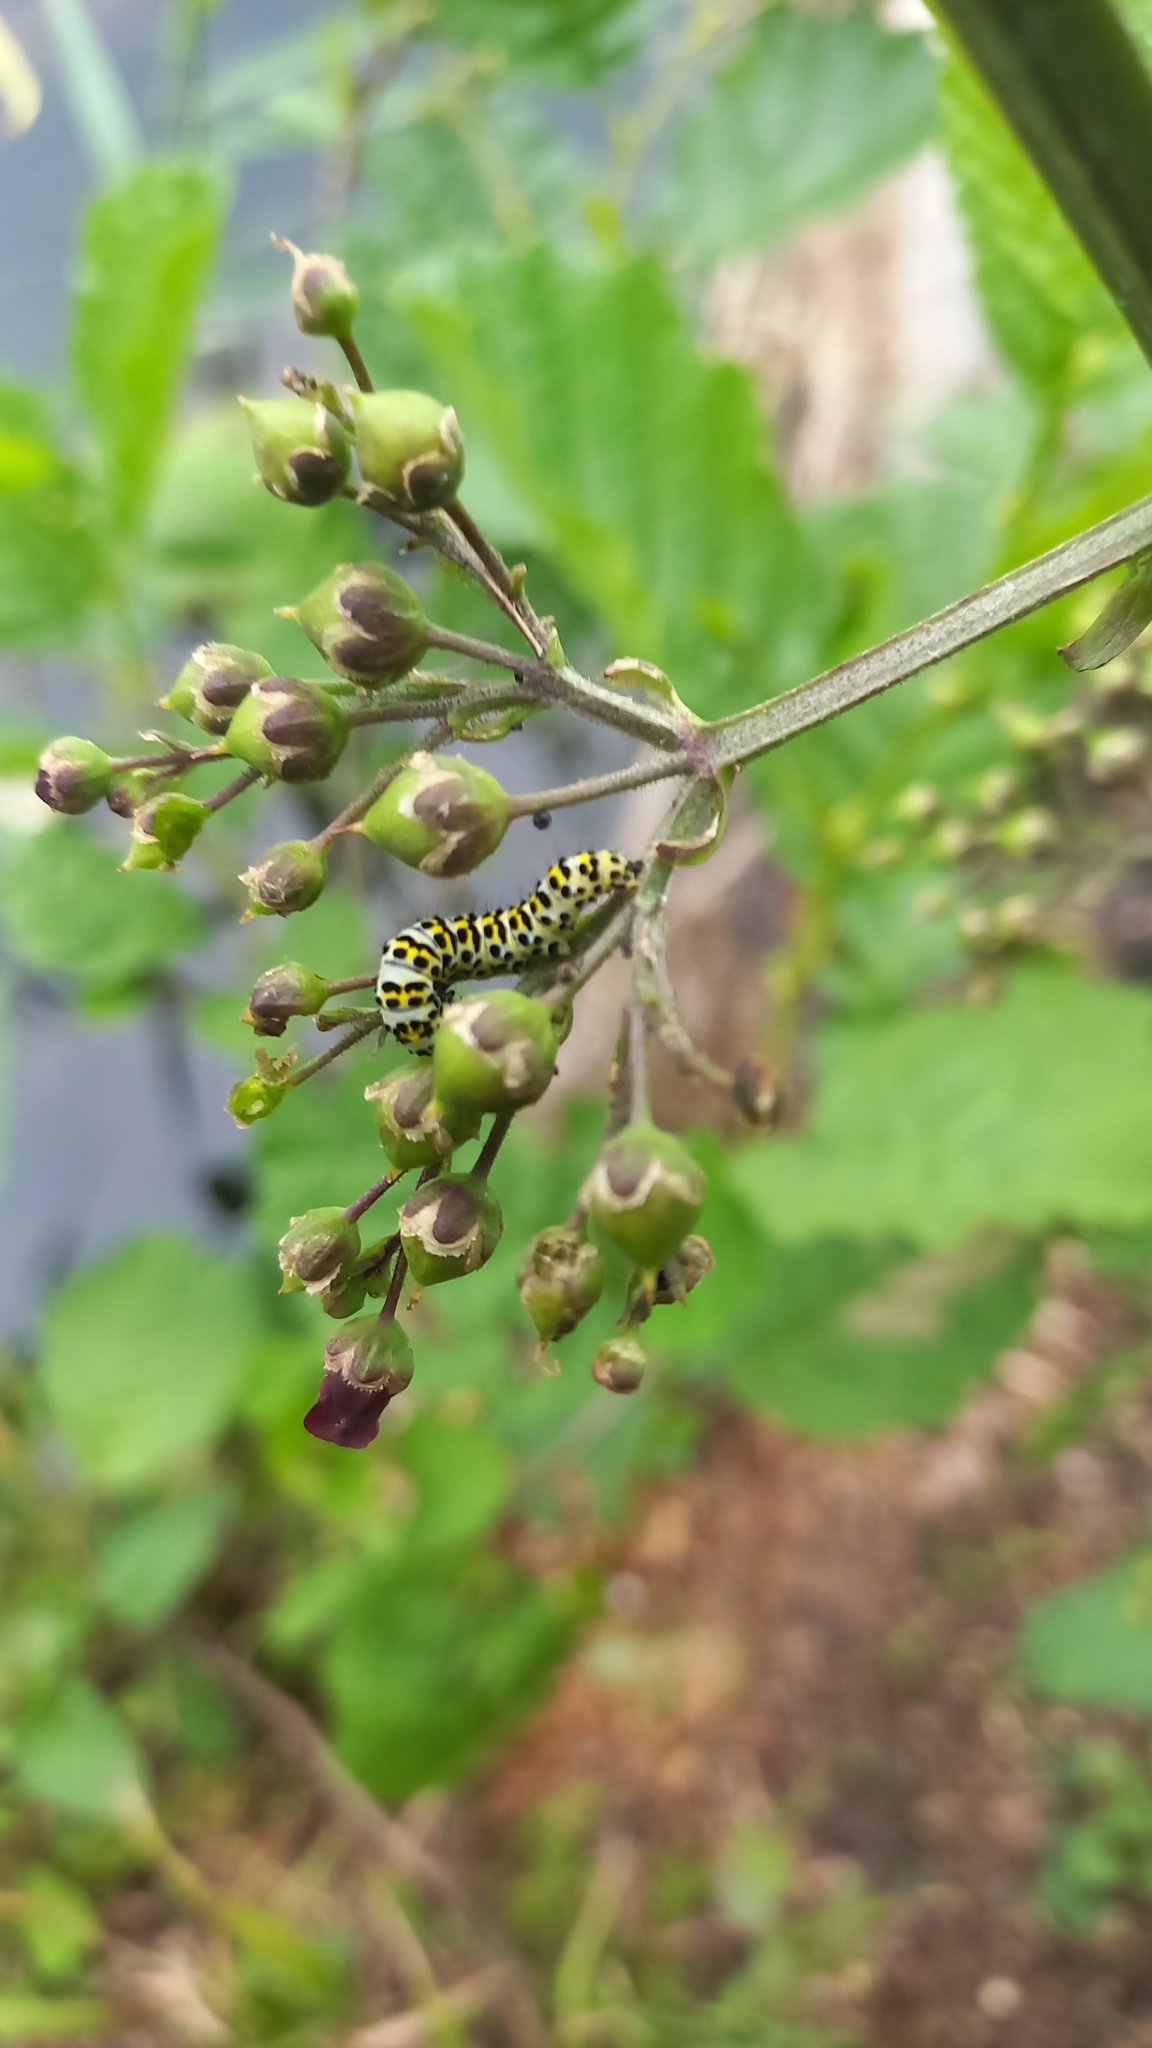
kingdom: Animalia
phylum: Arthropoda
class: Insecta
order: Lepidoptera
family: Noctuidae
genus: Shargacucullia
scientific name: Shargacucullia scrophulariae
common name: Water betony
